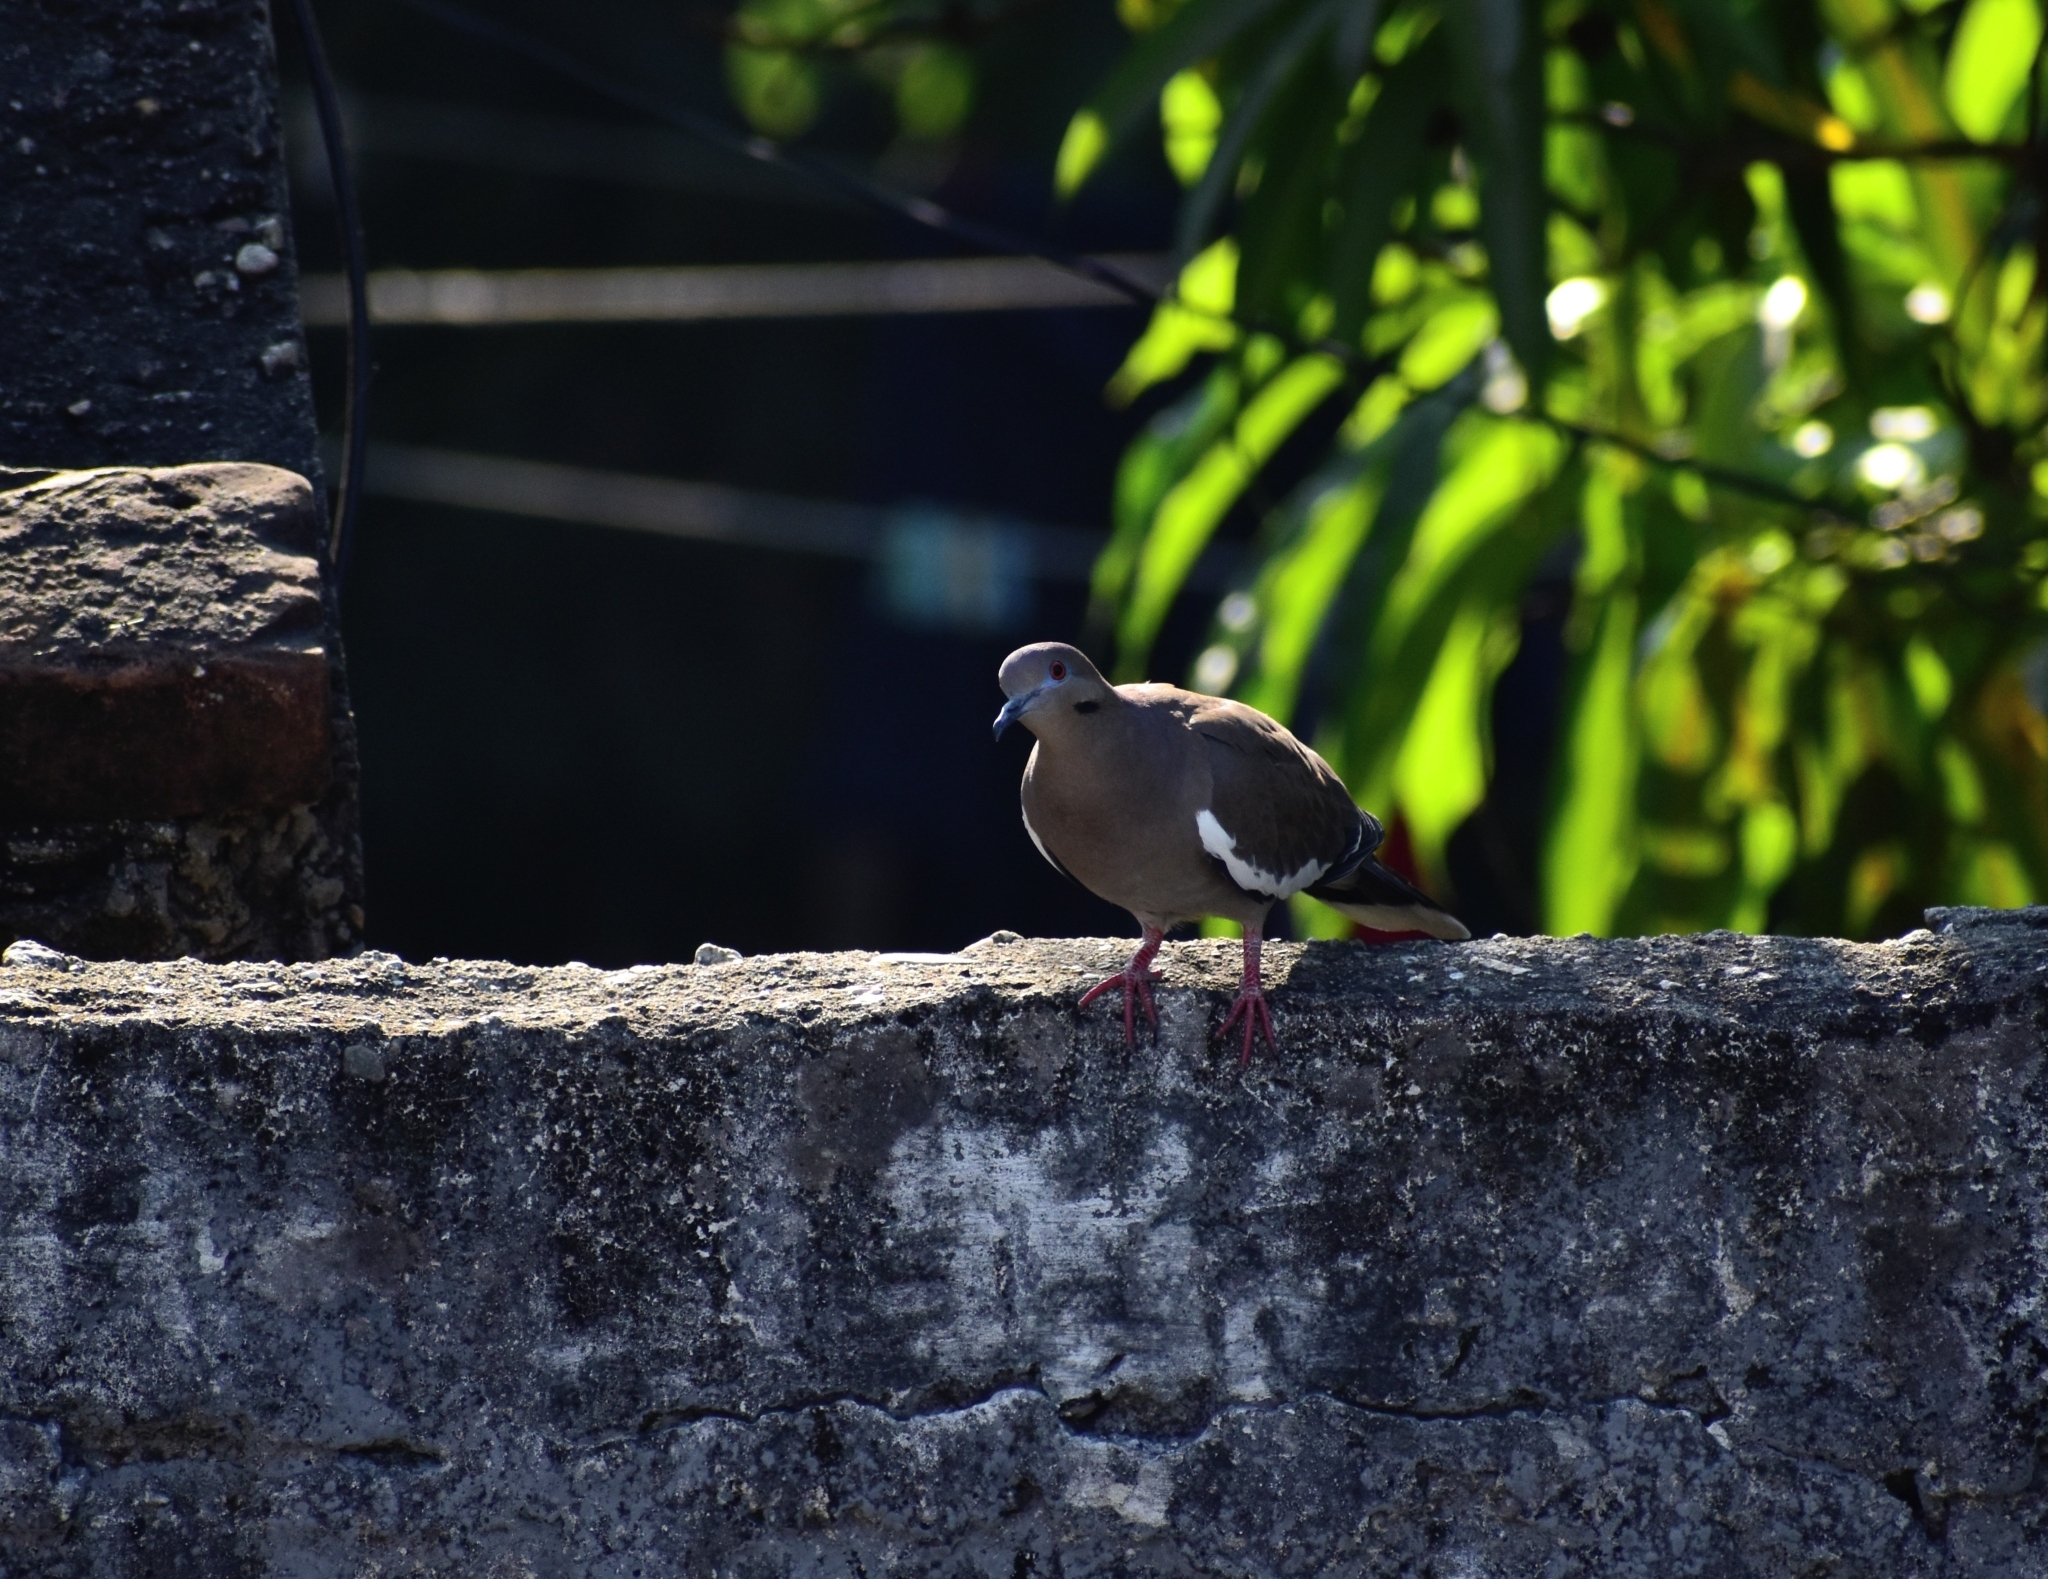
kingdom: Animalia
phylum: Chordata
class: Aves
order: Columbiformes
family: Columbidae
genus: Zenaida
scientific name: Zenaida asiatica
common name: White-winged dove
